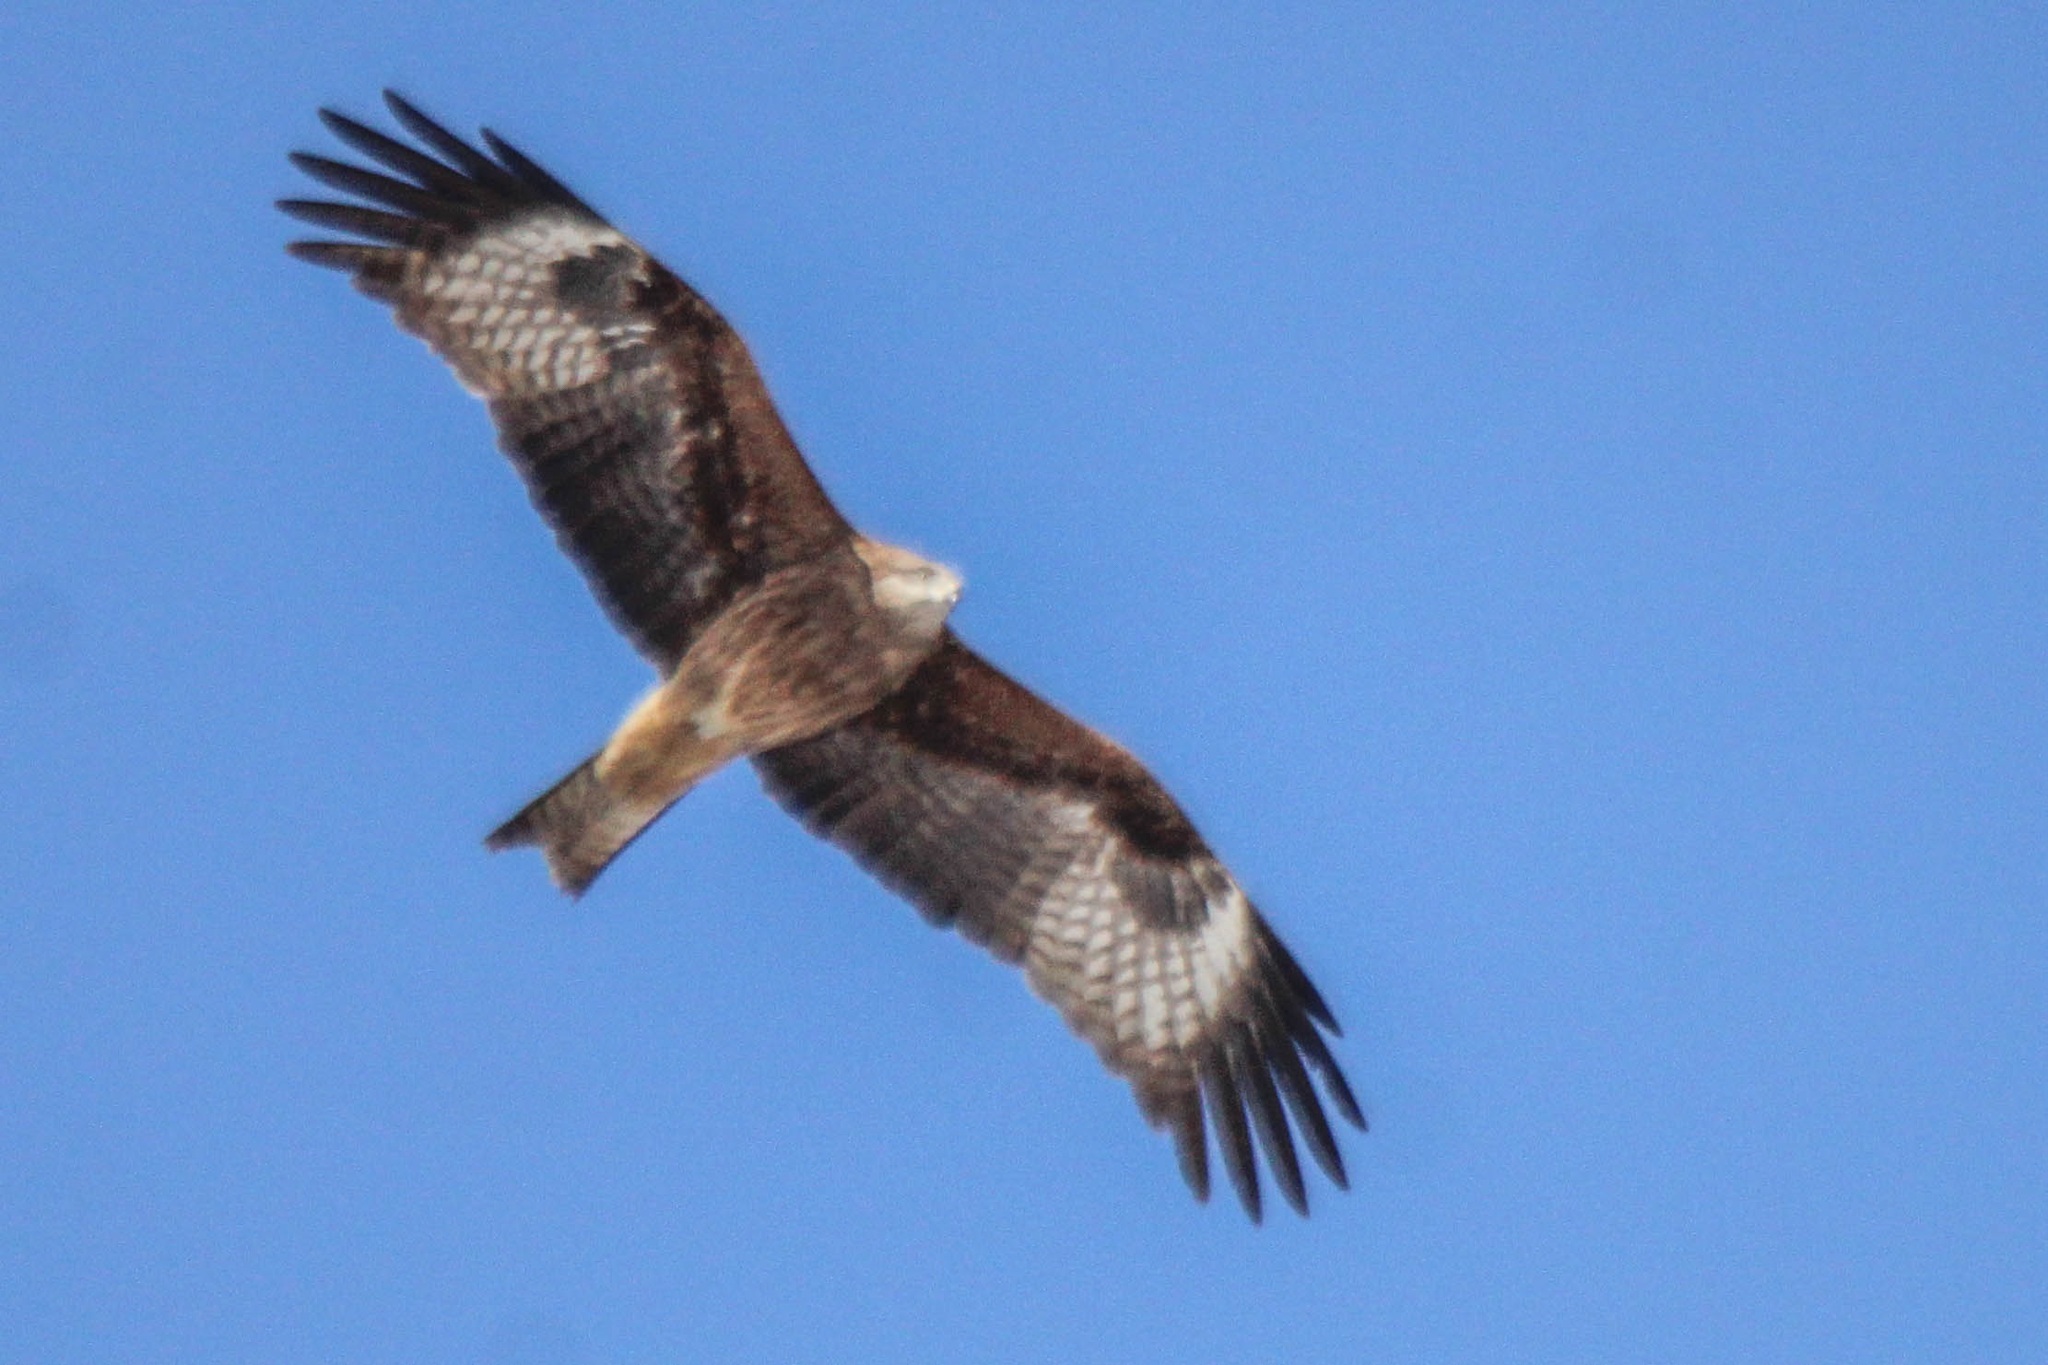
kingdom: Animalia
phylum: Chordata
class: Aves
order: Accipitriformes
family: Accipitridae
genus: Milvus
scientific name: Milvus migrans
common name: Black kite
